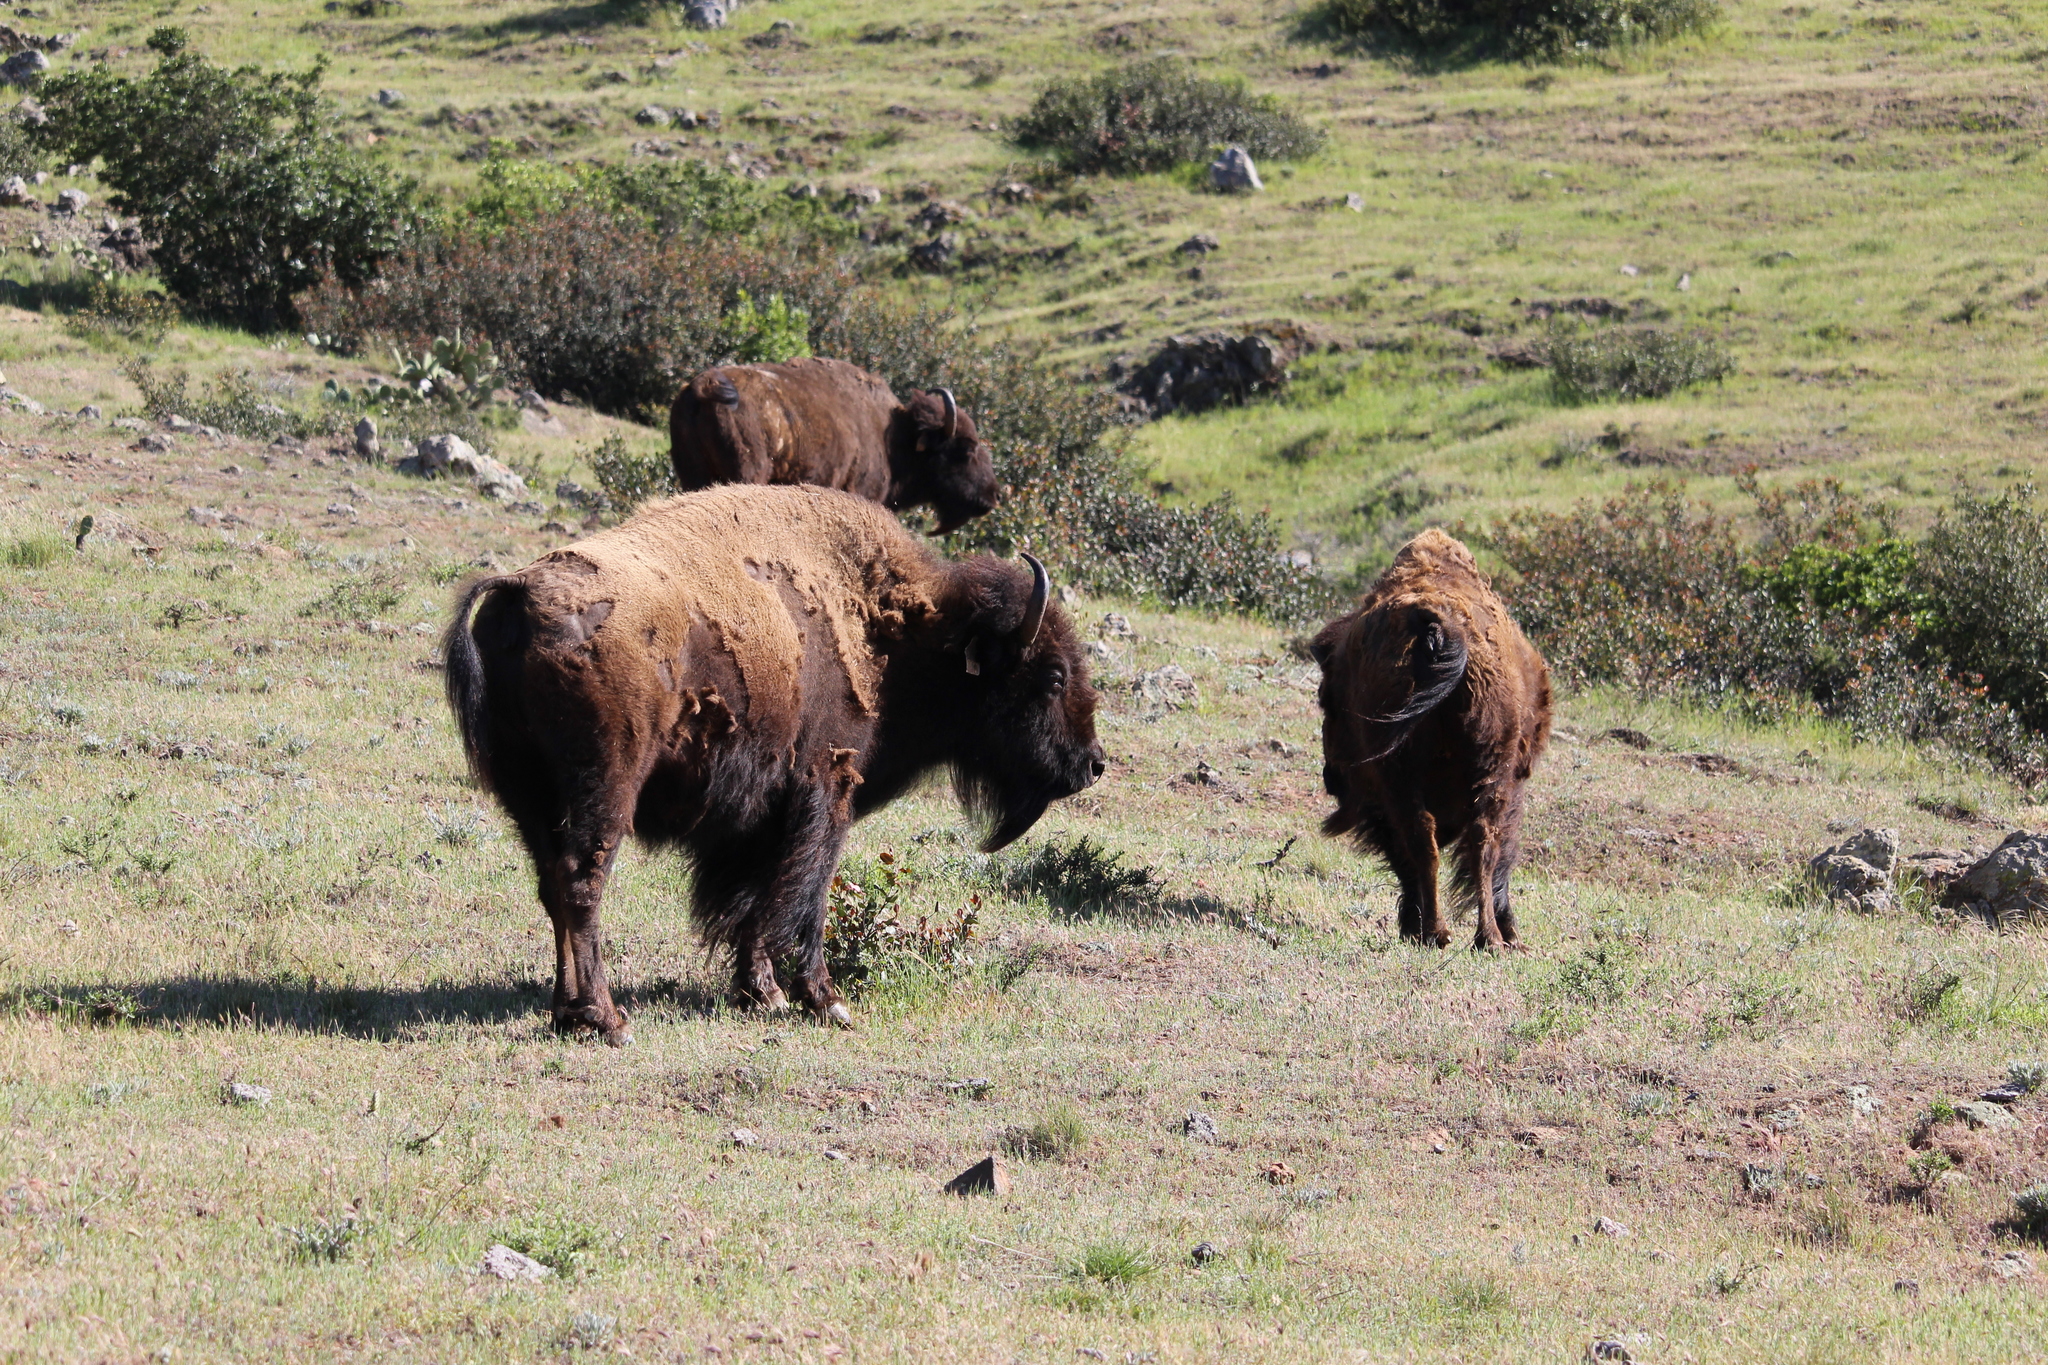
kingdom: Animalia
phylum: Chordata
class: Mammalia
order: Artiodactyla
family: Bovidae
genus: Bison
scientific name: Bison bison
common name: American bison
